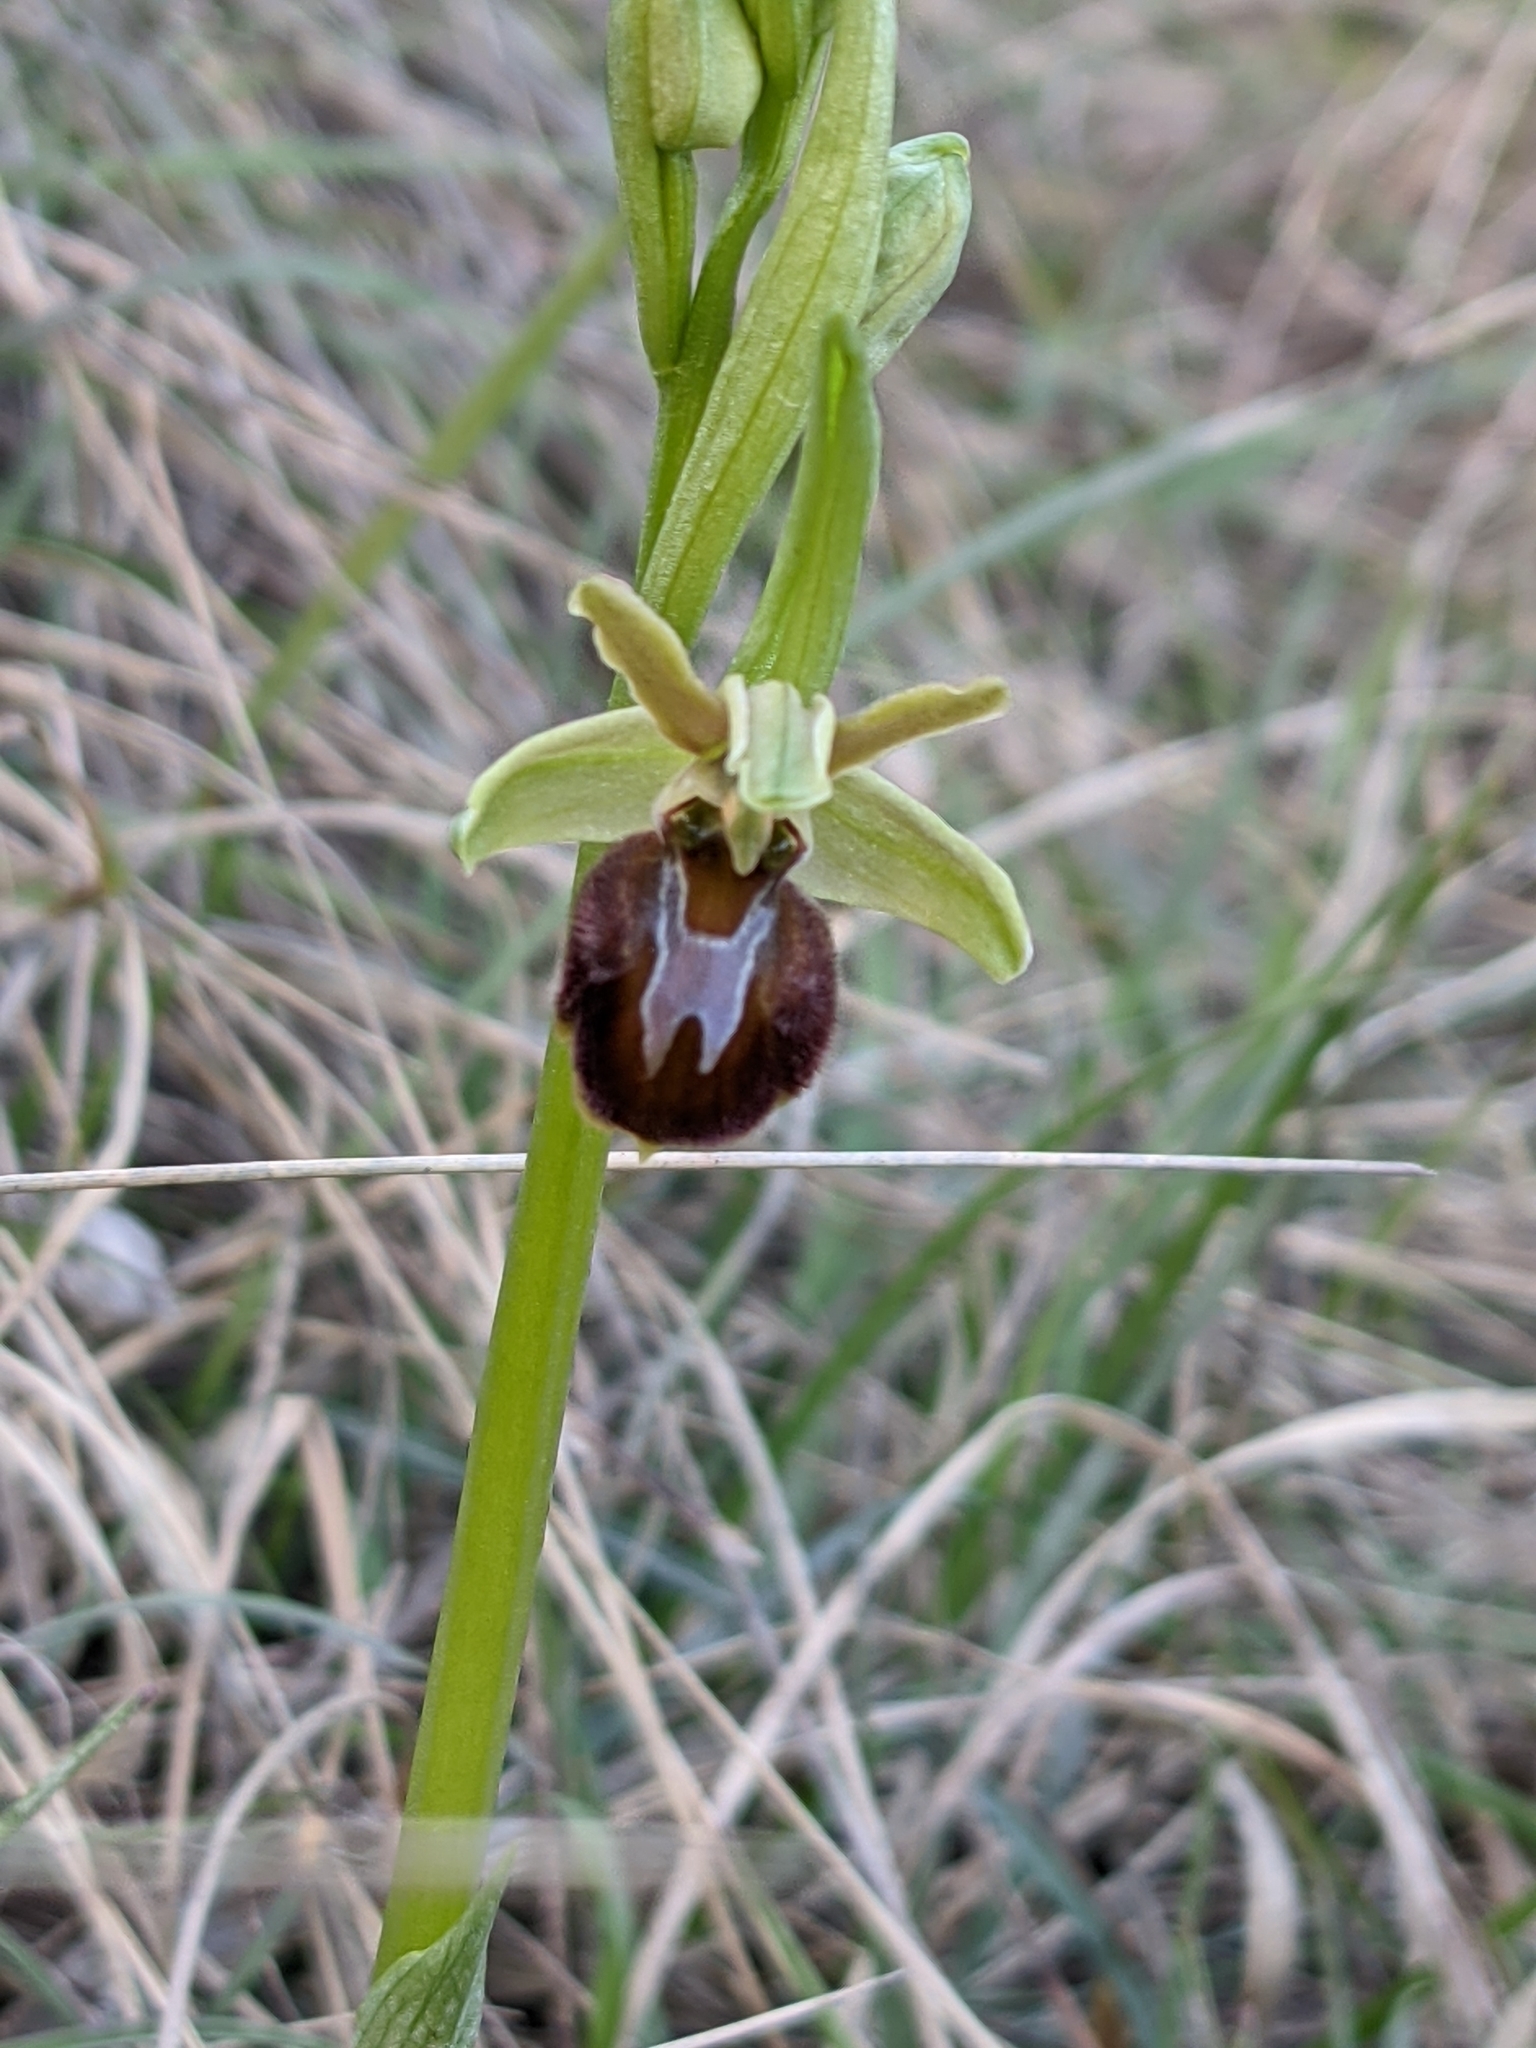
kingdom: Plantae
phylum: Tracheophyta
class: Liliopsida
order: Asparagales
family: Orchidaceae
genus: Ophrys
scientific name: Ophrys sphegodes
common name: Early spider-orchid
